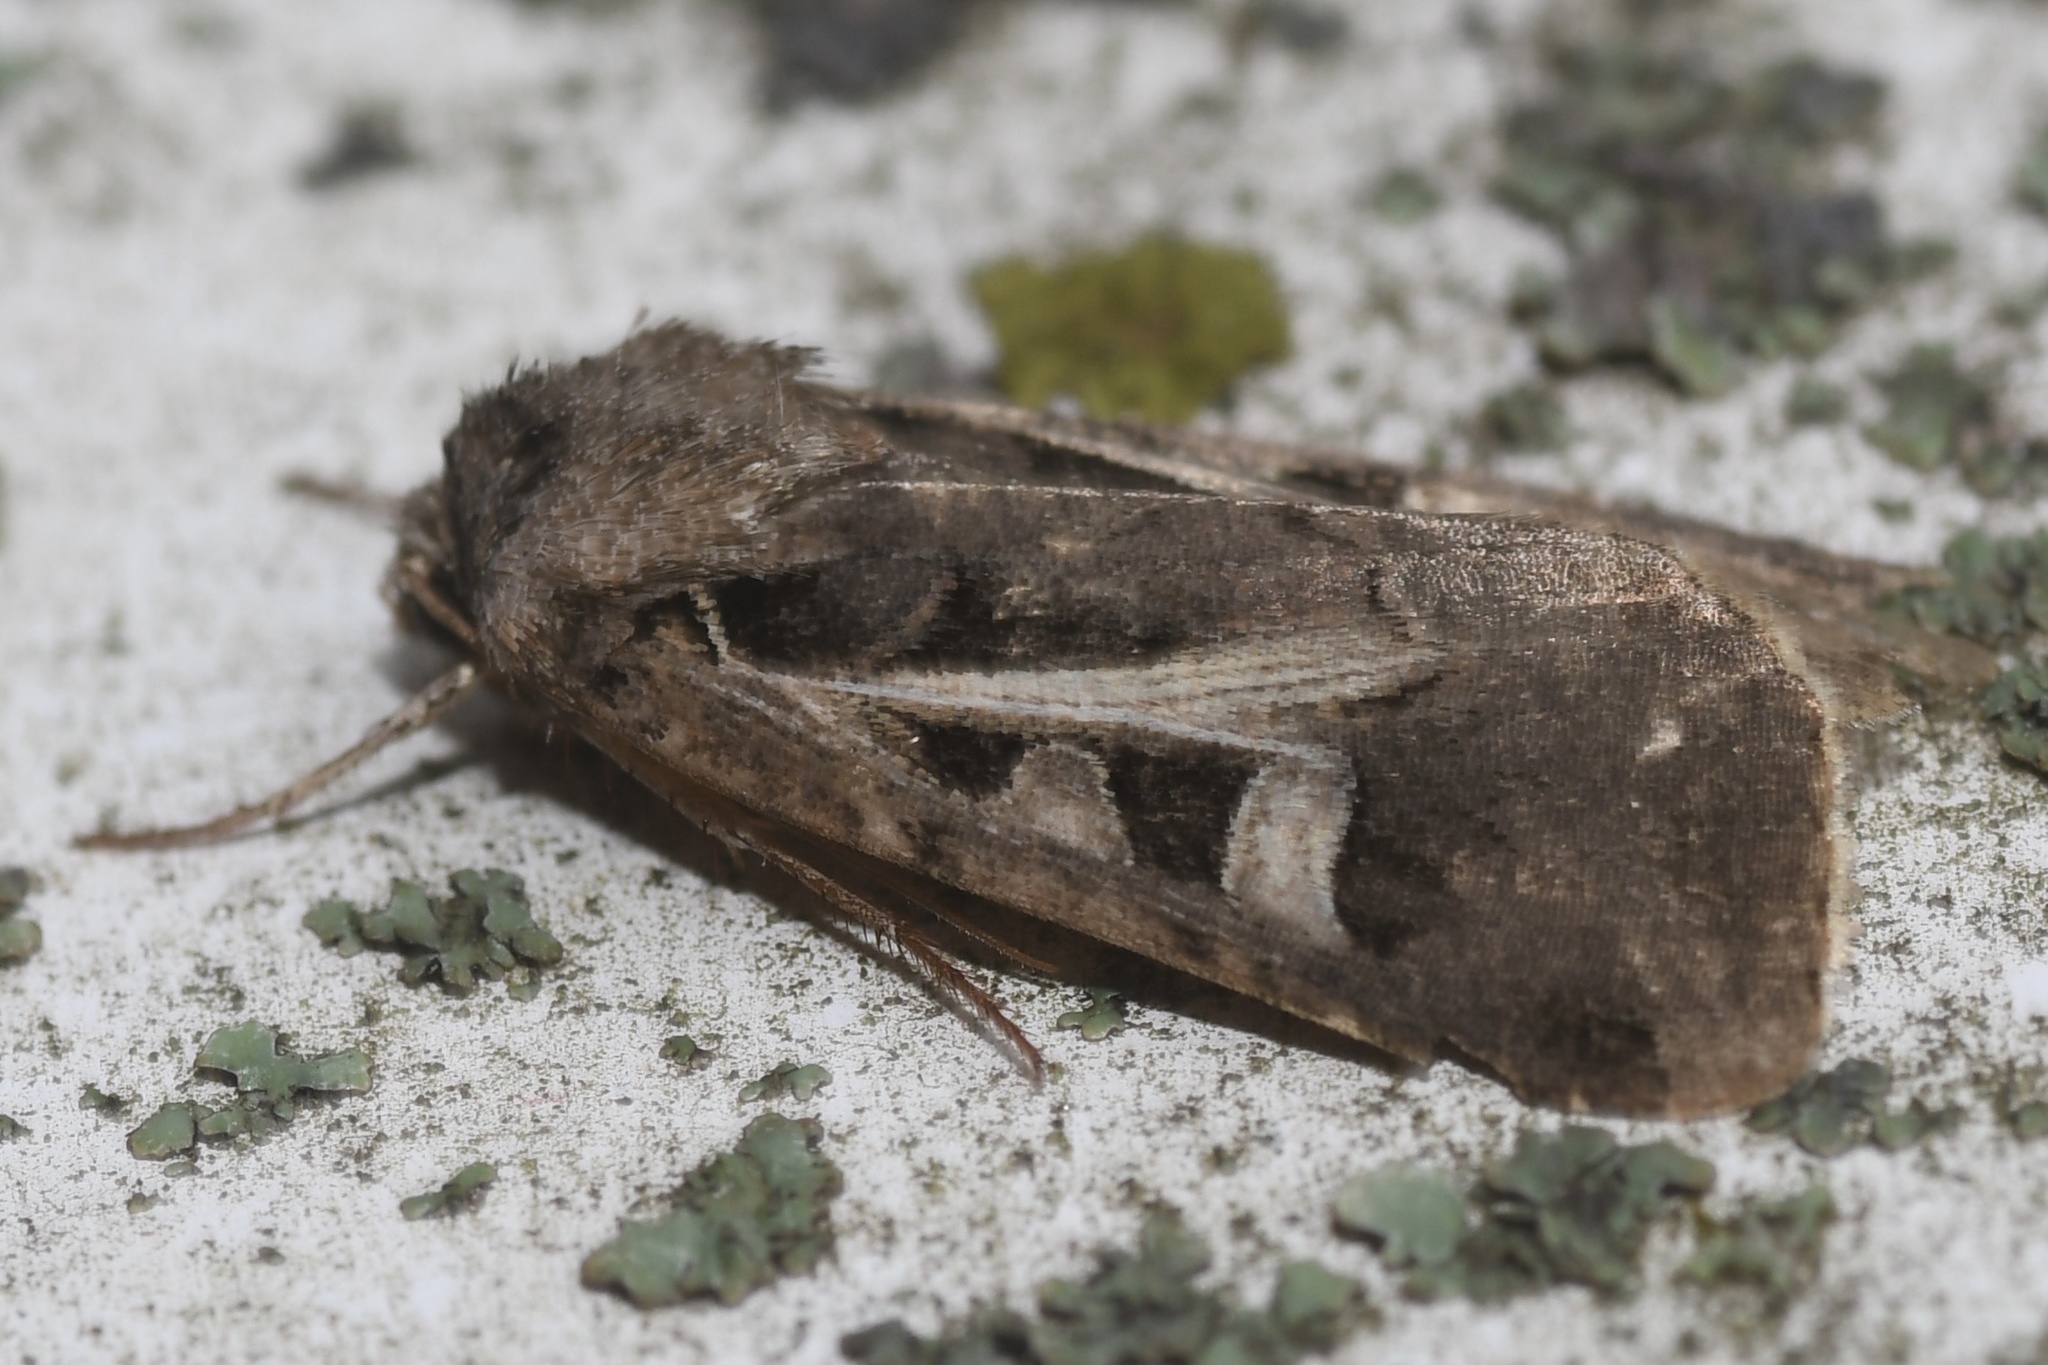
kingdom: Animalia
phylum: Arthropoda
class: Insecta
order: Lepidoptera
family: Noctuidae
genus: Feltia
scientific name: Feltia herilis
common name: Master's dart
